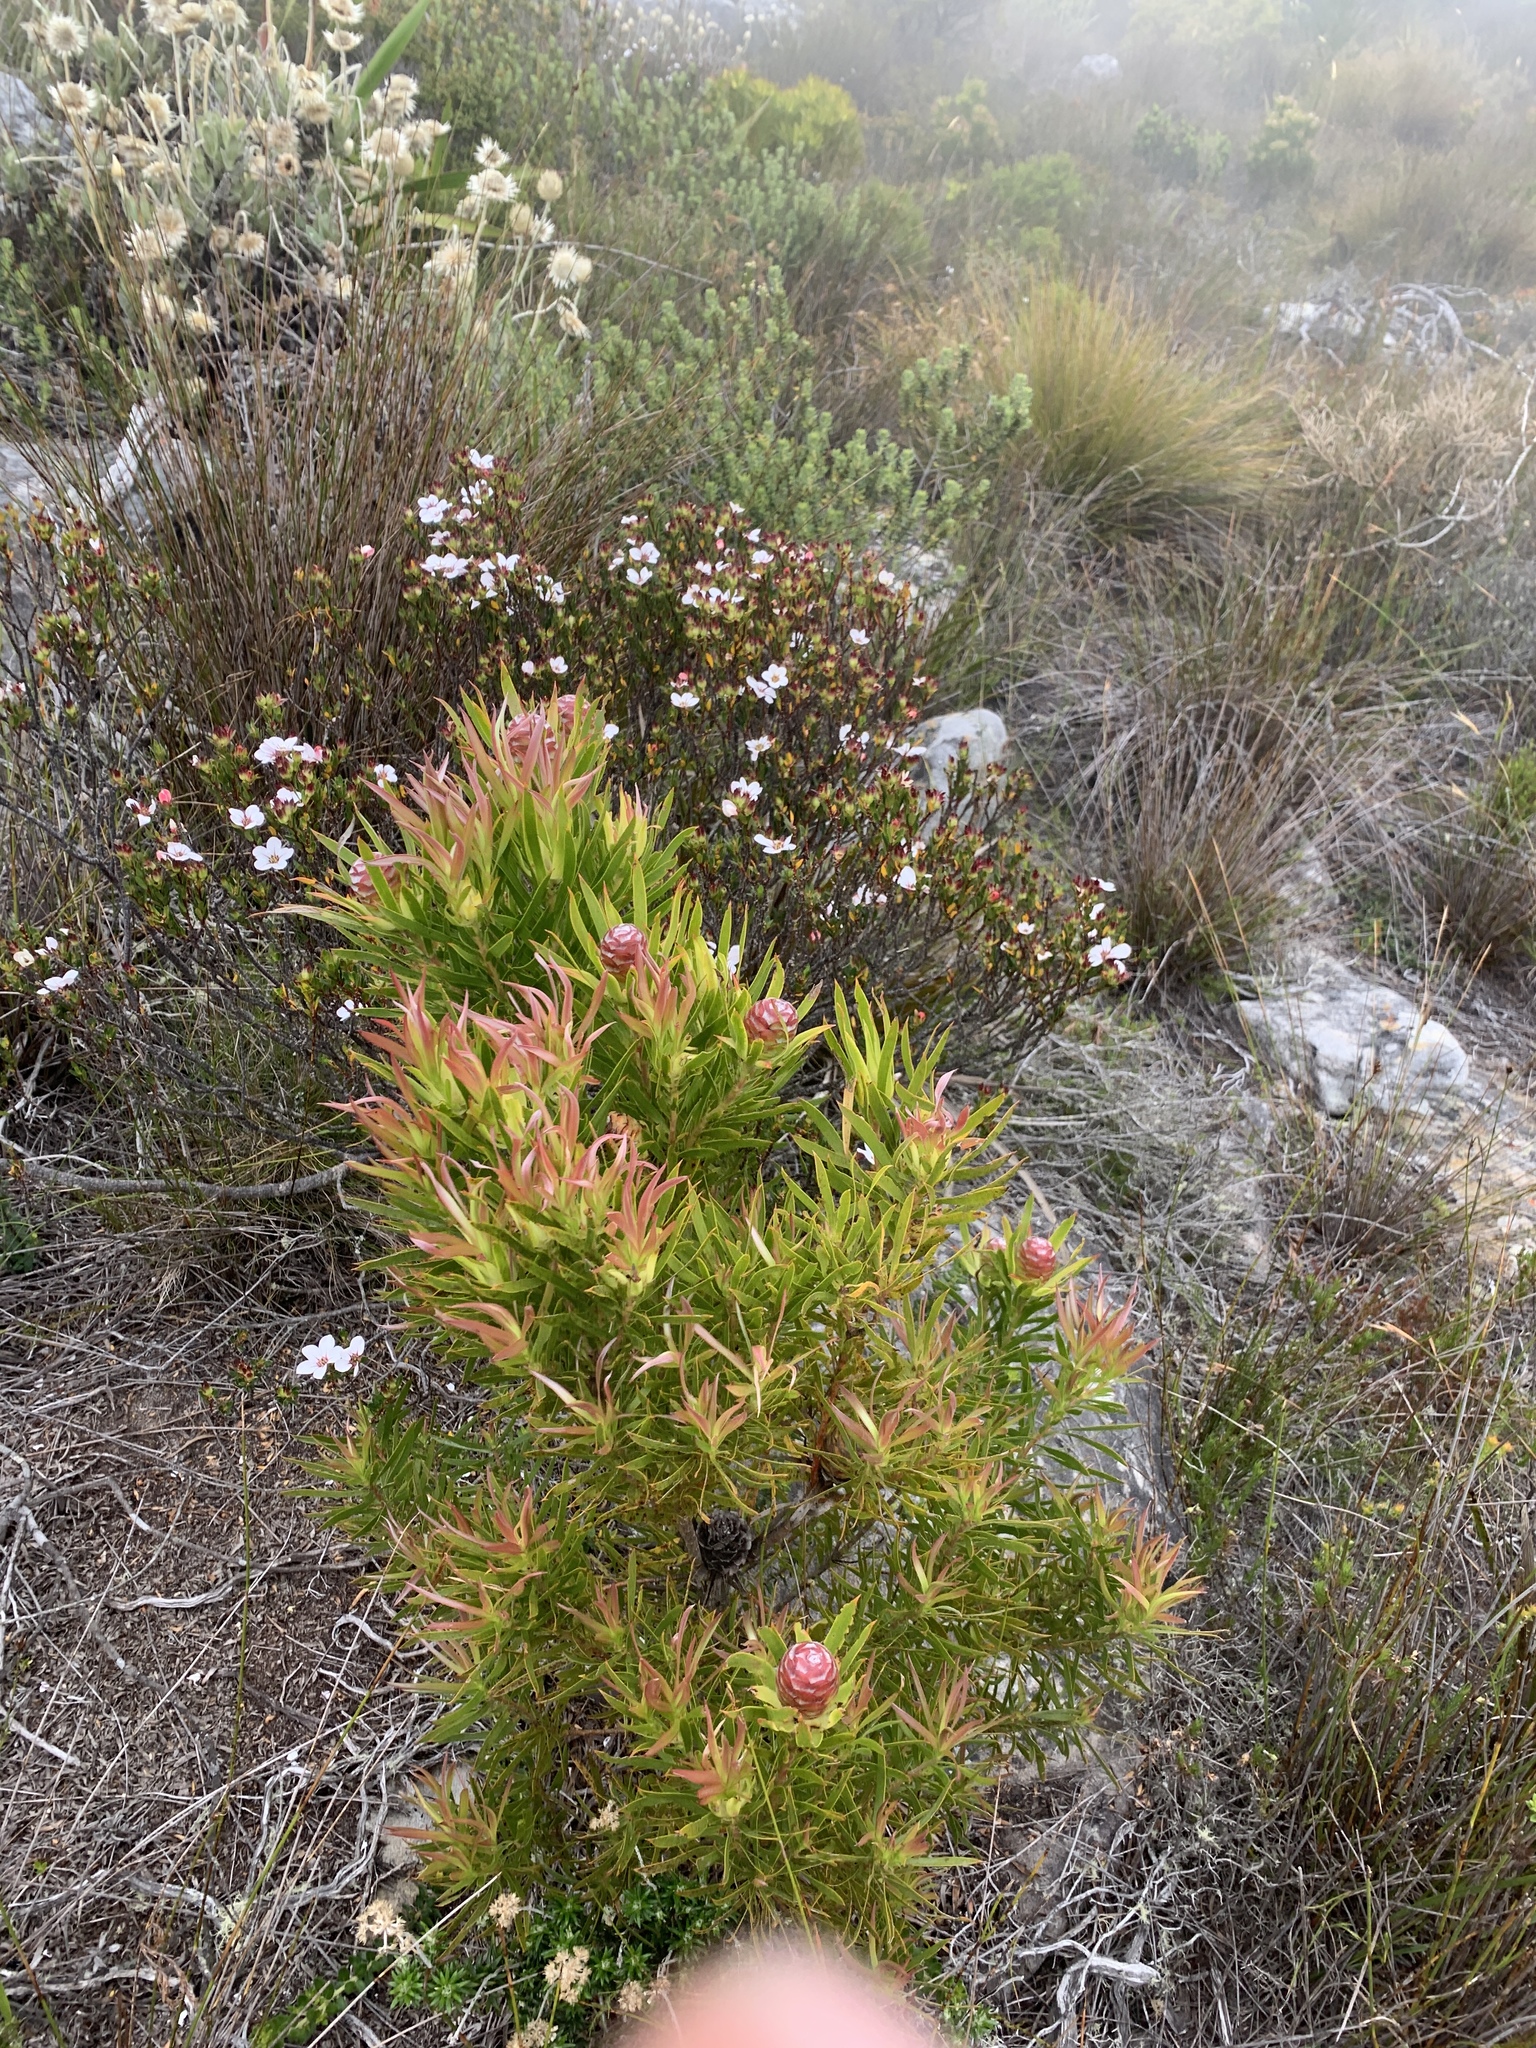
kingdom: Plantae
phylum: Tracheophyta
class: Magnoliopsida
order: Proteales
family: Proteaceae
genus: Leucadendron
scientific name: Leucadendron xanthoconus
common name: Sickle-leaf conebush
